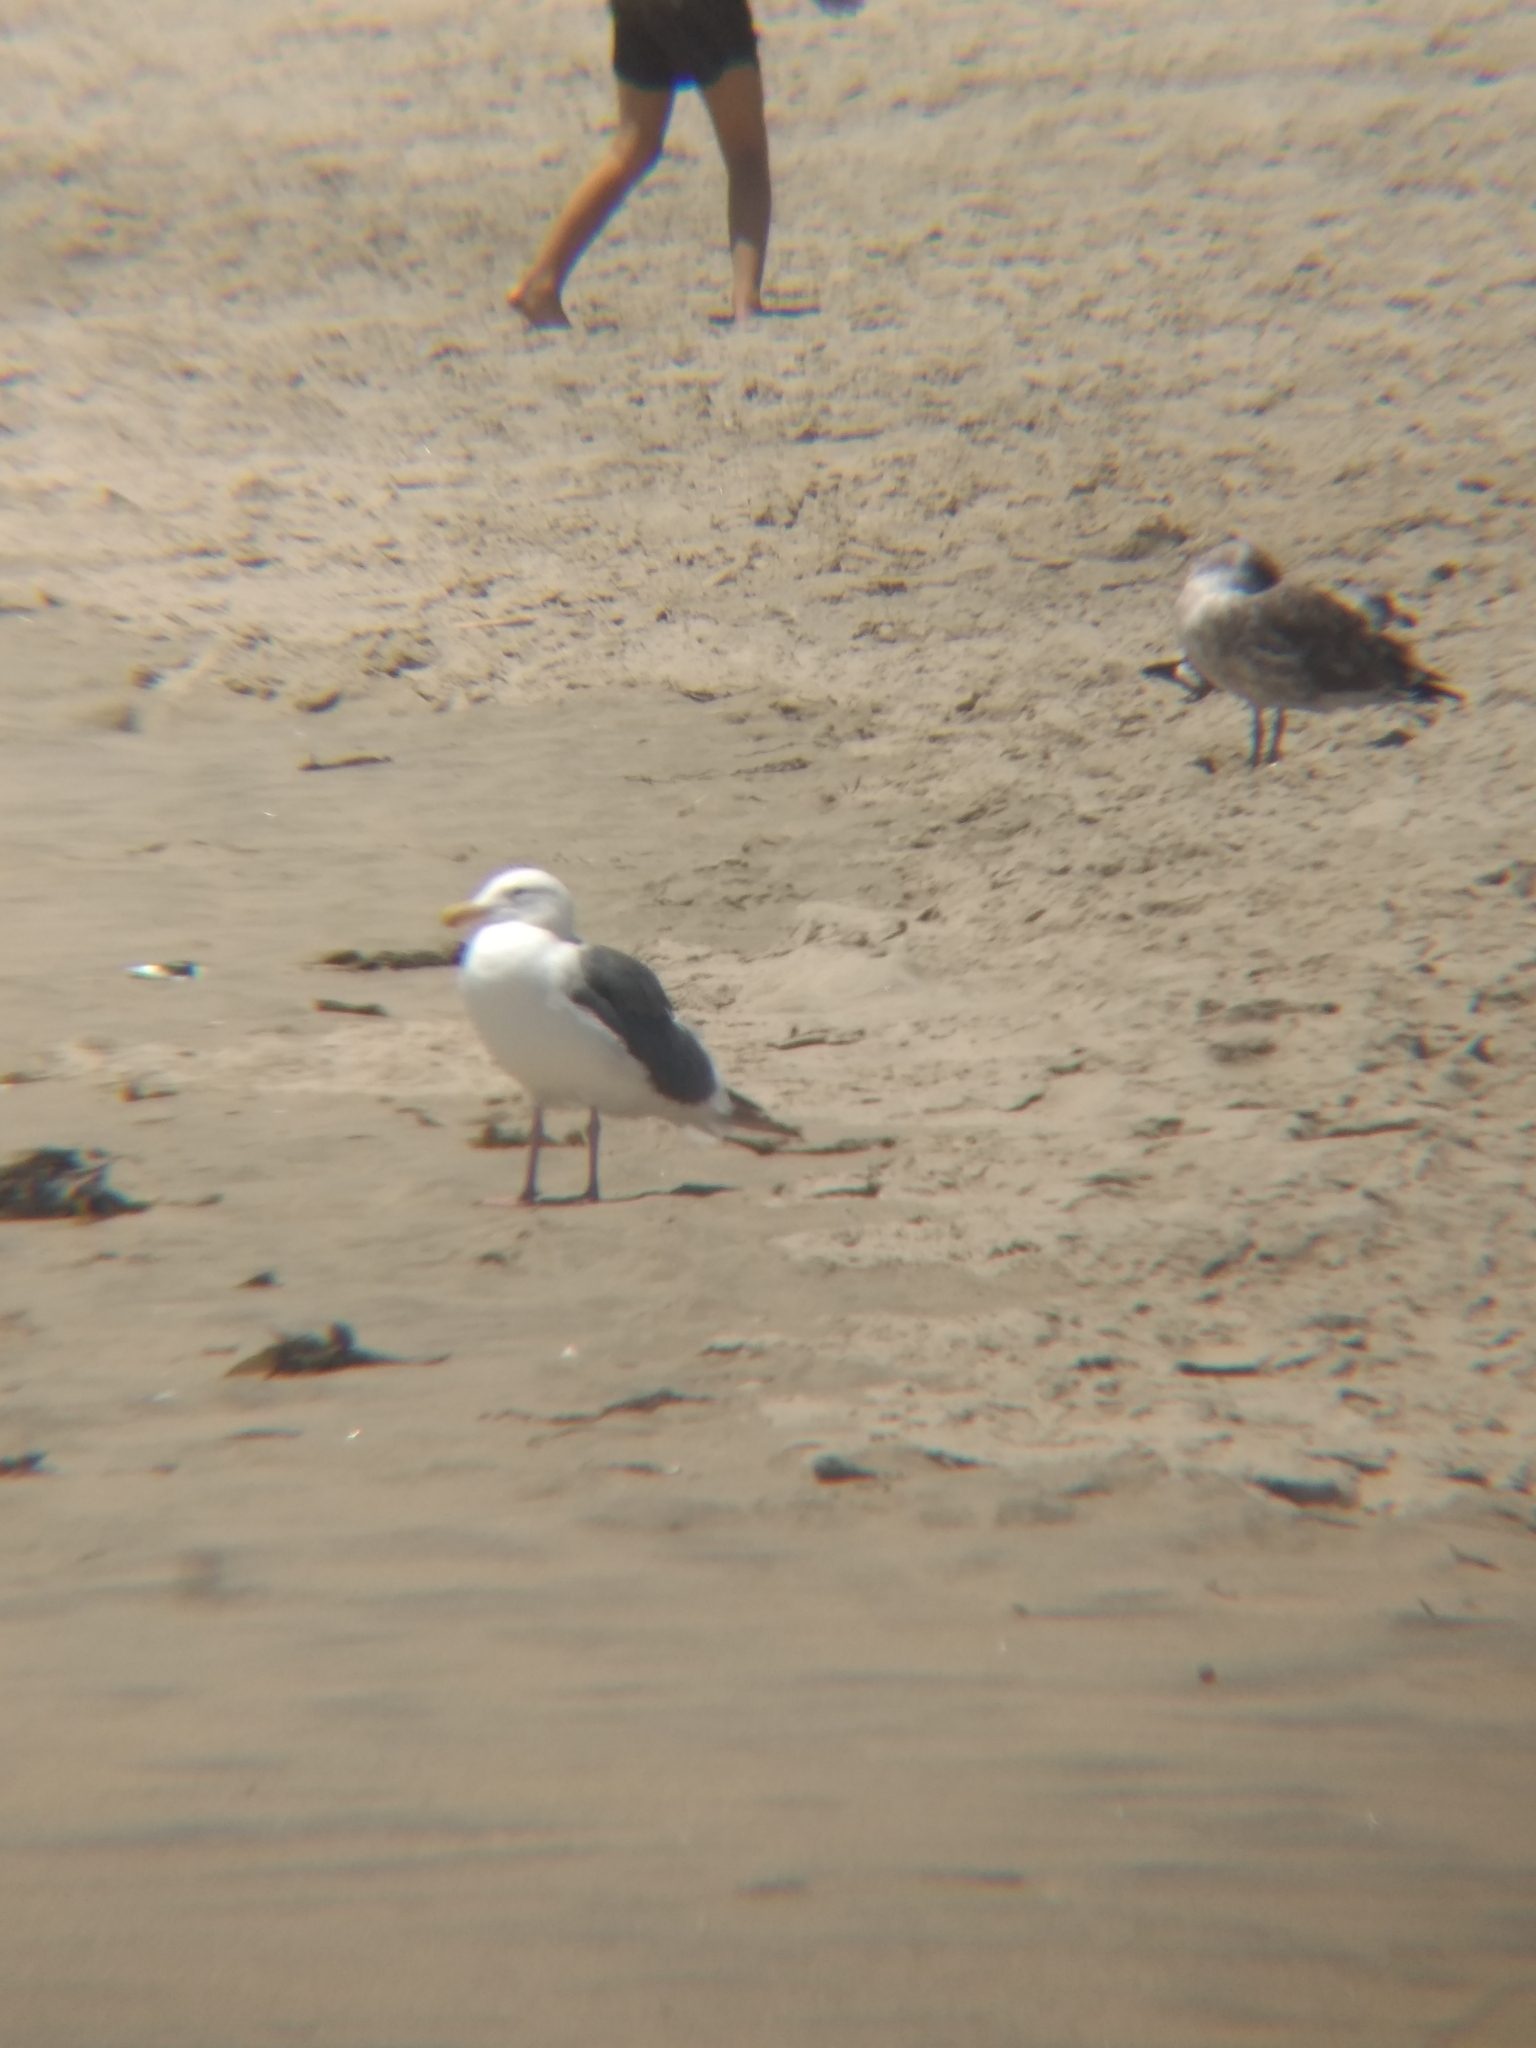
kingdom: Animalia
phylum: Chordata
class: Aves
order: Charadriiformes
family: Laridae
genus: Larus
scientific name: Larus occidentalis
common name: Western gull
